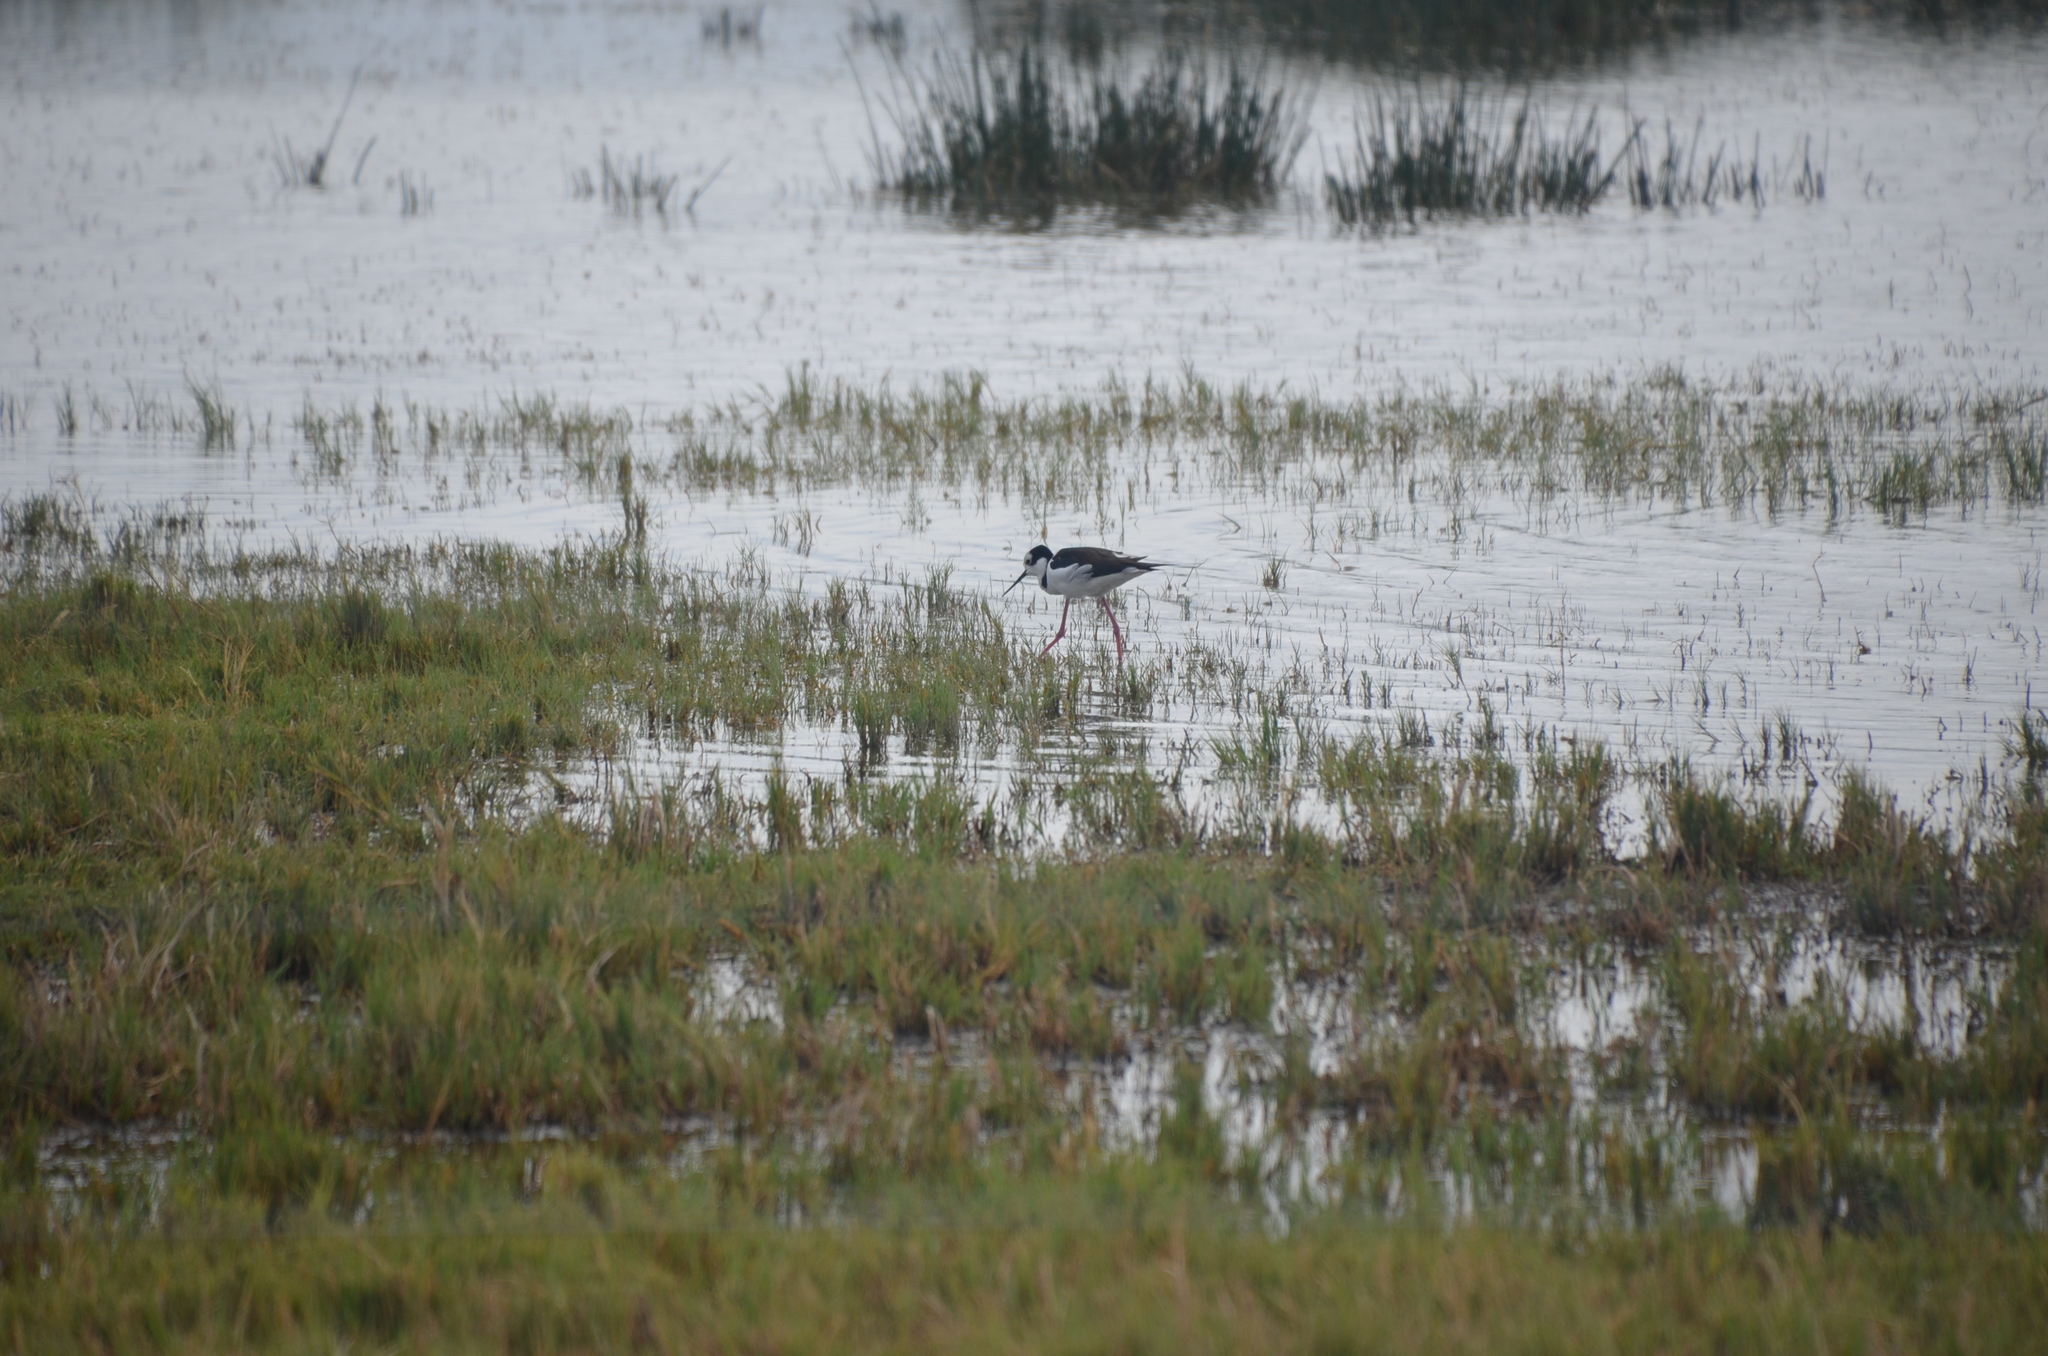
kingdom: Animalia
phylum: Chordata
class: Aves
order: Charadriiformes
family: Recurvirostridae
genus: Himantopus
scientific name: Himantopus mexicanus
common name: Black-necked stilt
